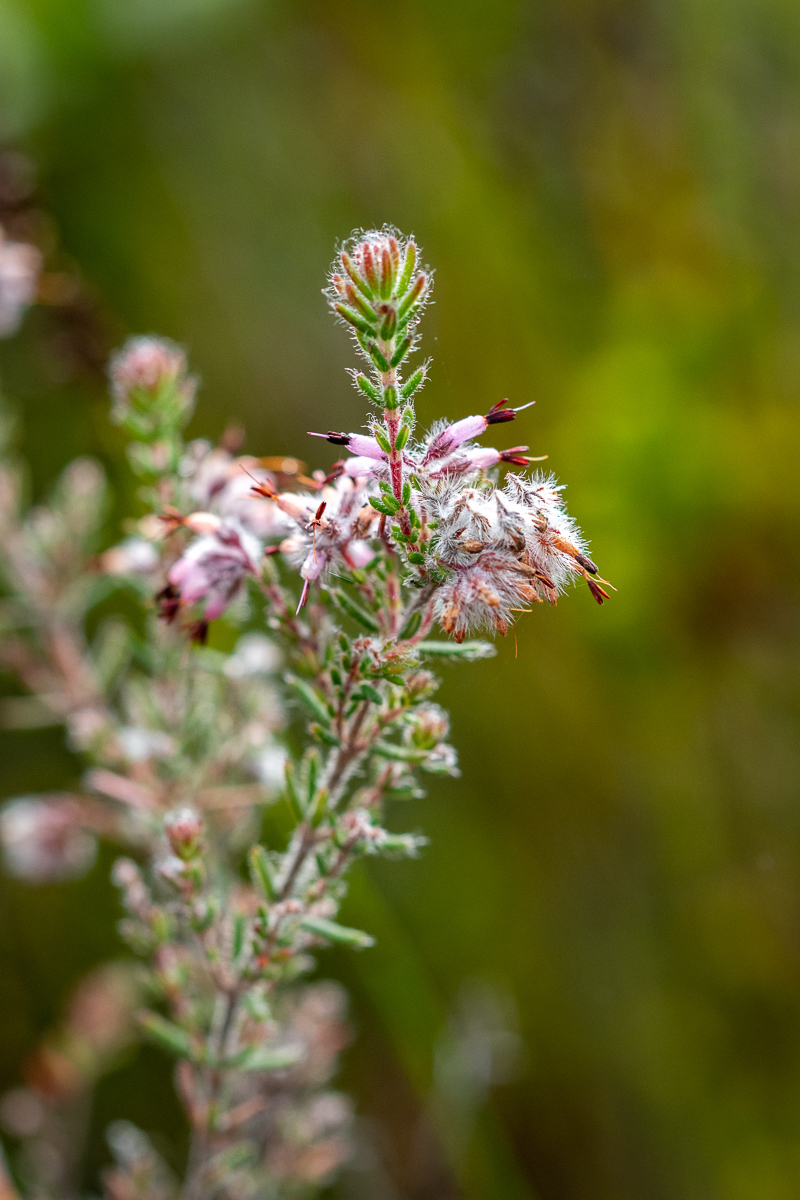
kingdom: Plantae
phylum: Tracheophyta
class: Magnoliopsida
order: Ericales
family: Ericaceae
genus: Erica
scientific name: Erica eriocephala
